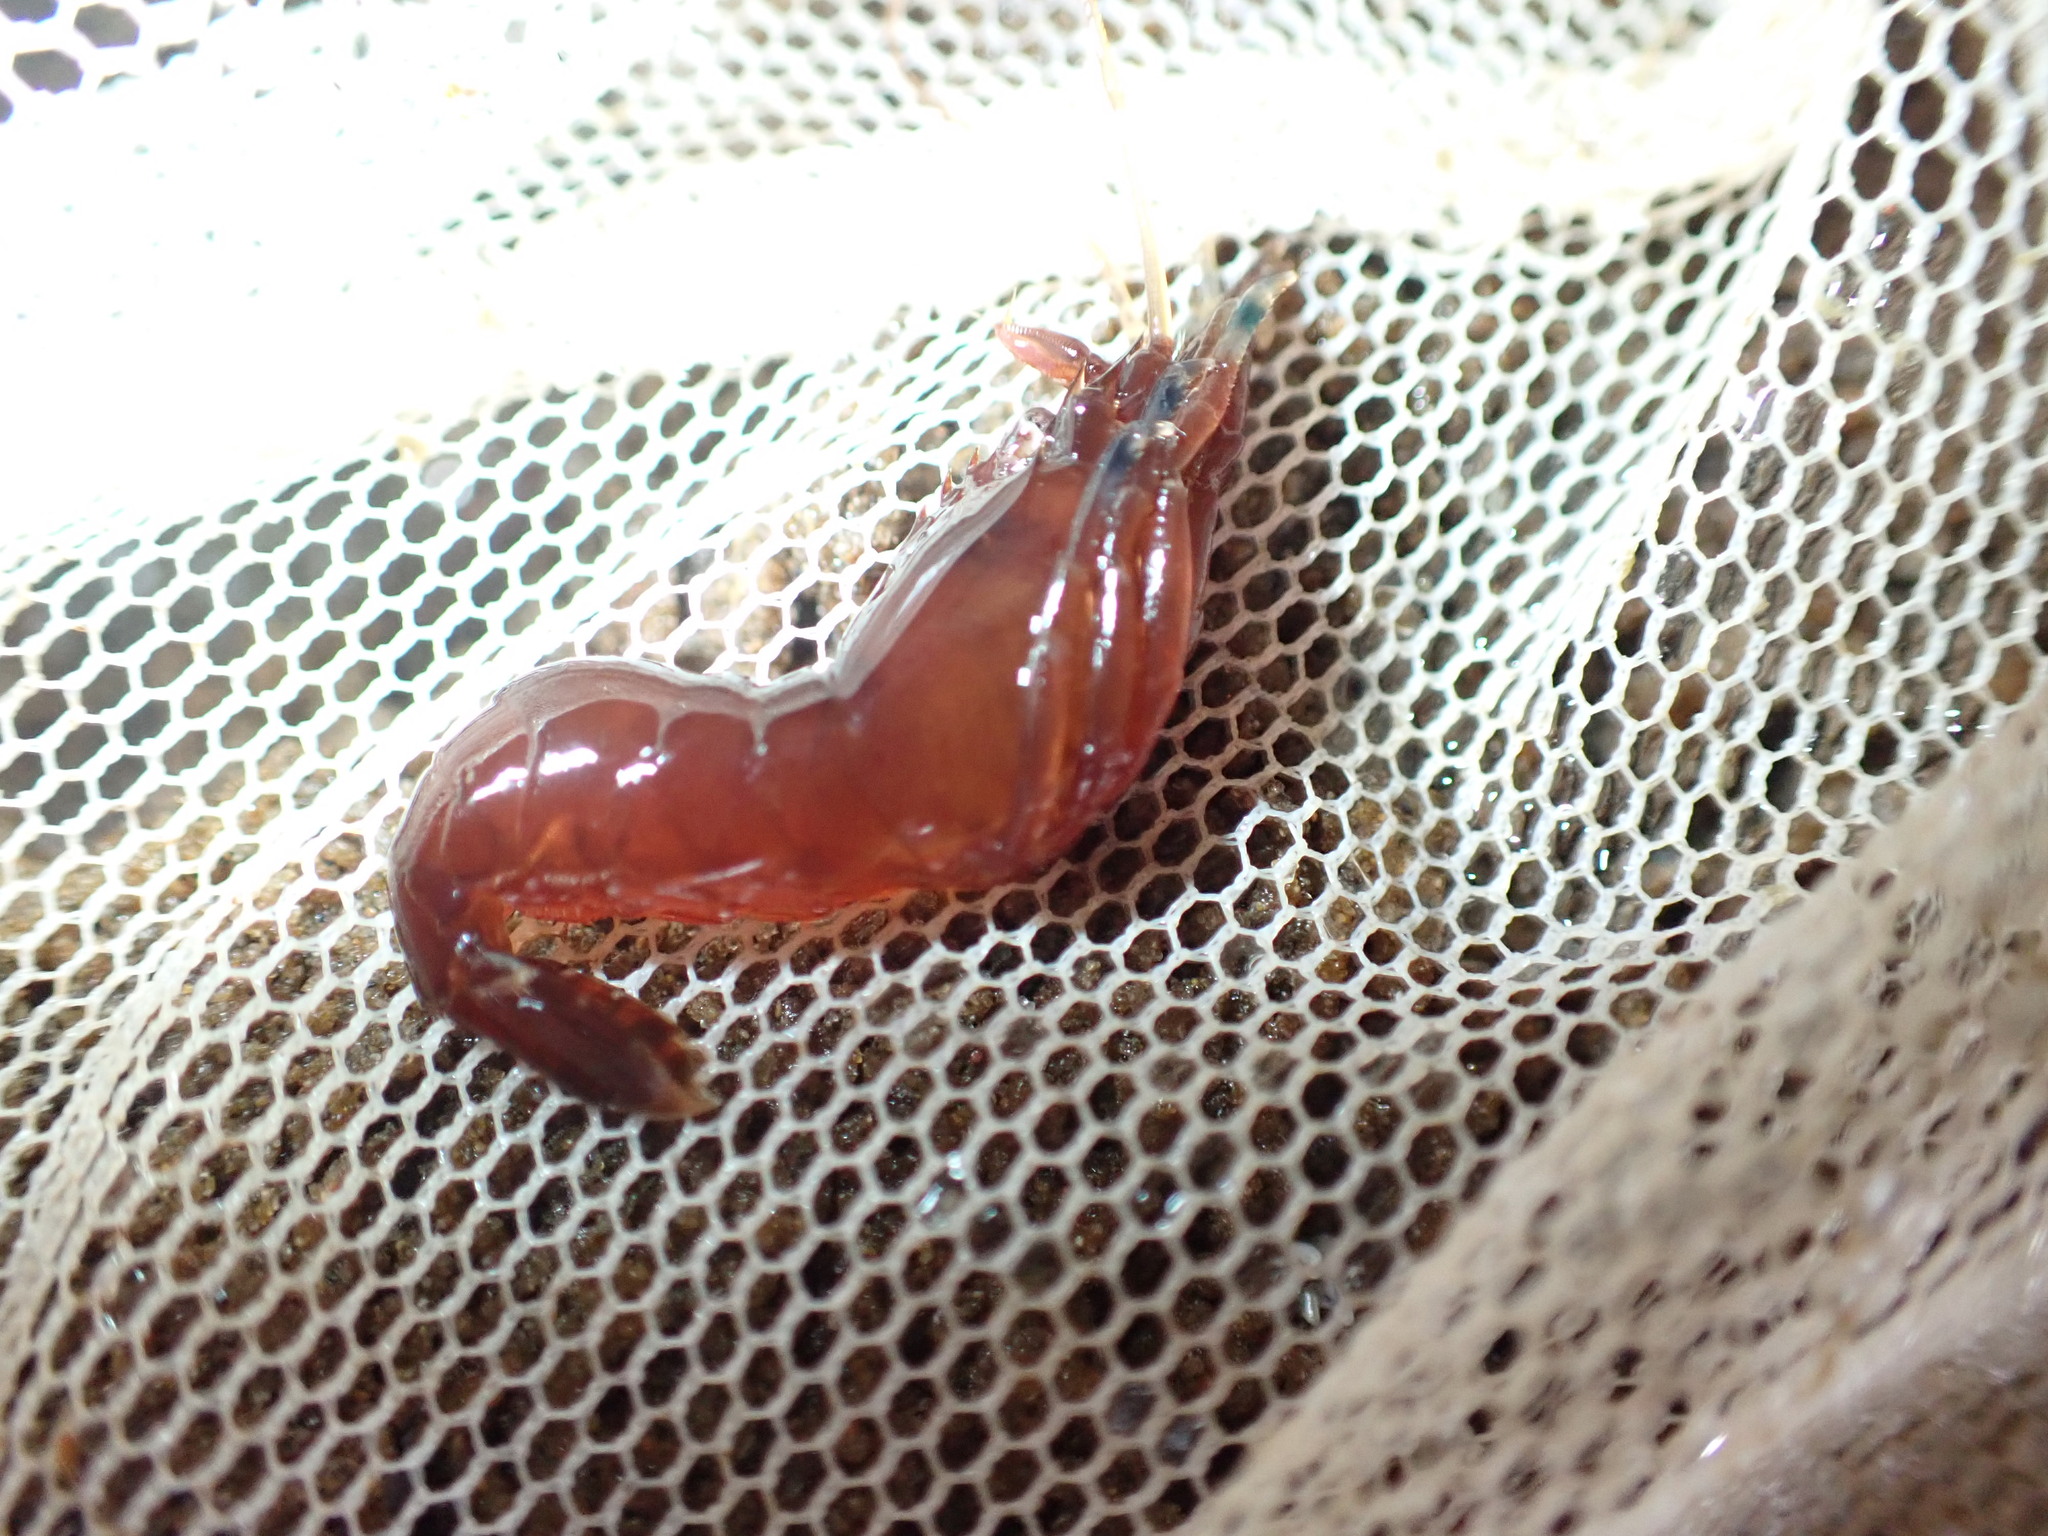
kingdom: Animalia
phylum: Arthropoda
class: Malacostraca
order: Decapoda
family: Thoridae
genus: Heptacarpus
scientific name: Heptacarpus brevirostris
